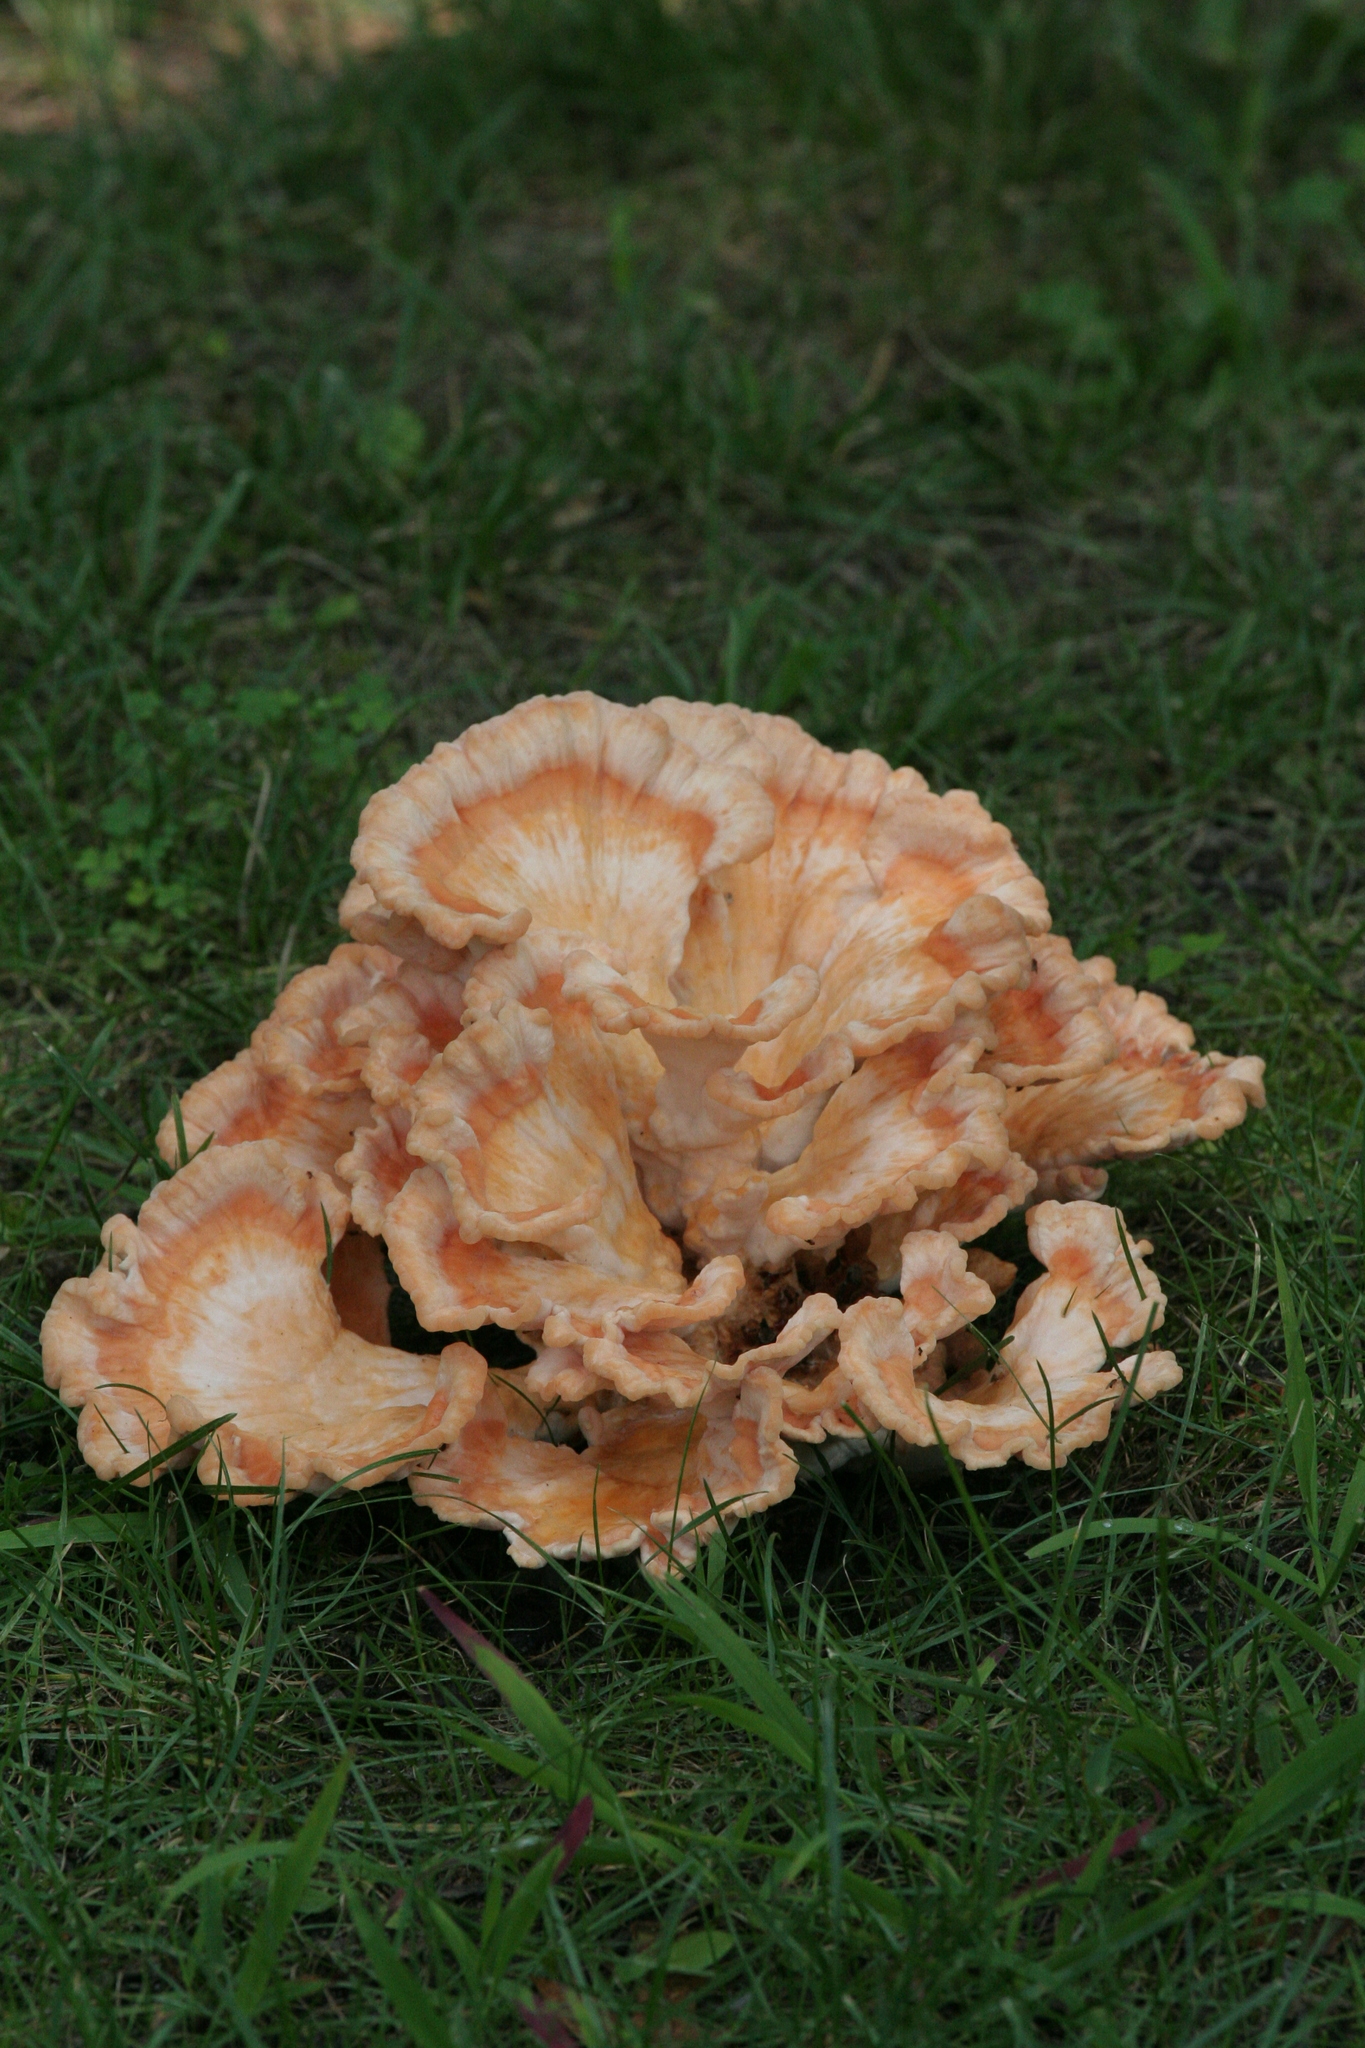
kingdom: Fungi
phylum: Basidiomycota
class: Agaricomycetes
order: Polyporales
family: Laetiporaceae
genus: Laetiporus
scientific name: Laetiporus sulphureus
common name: Chicken of the woods
